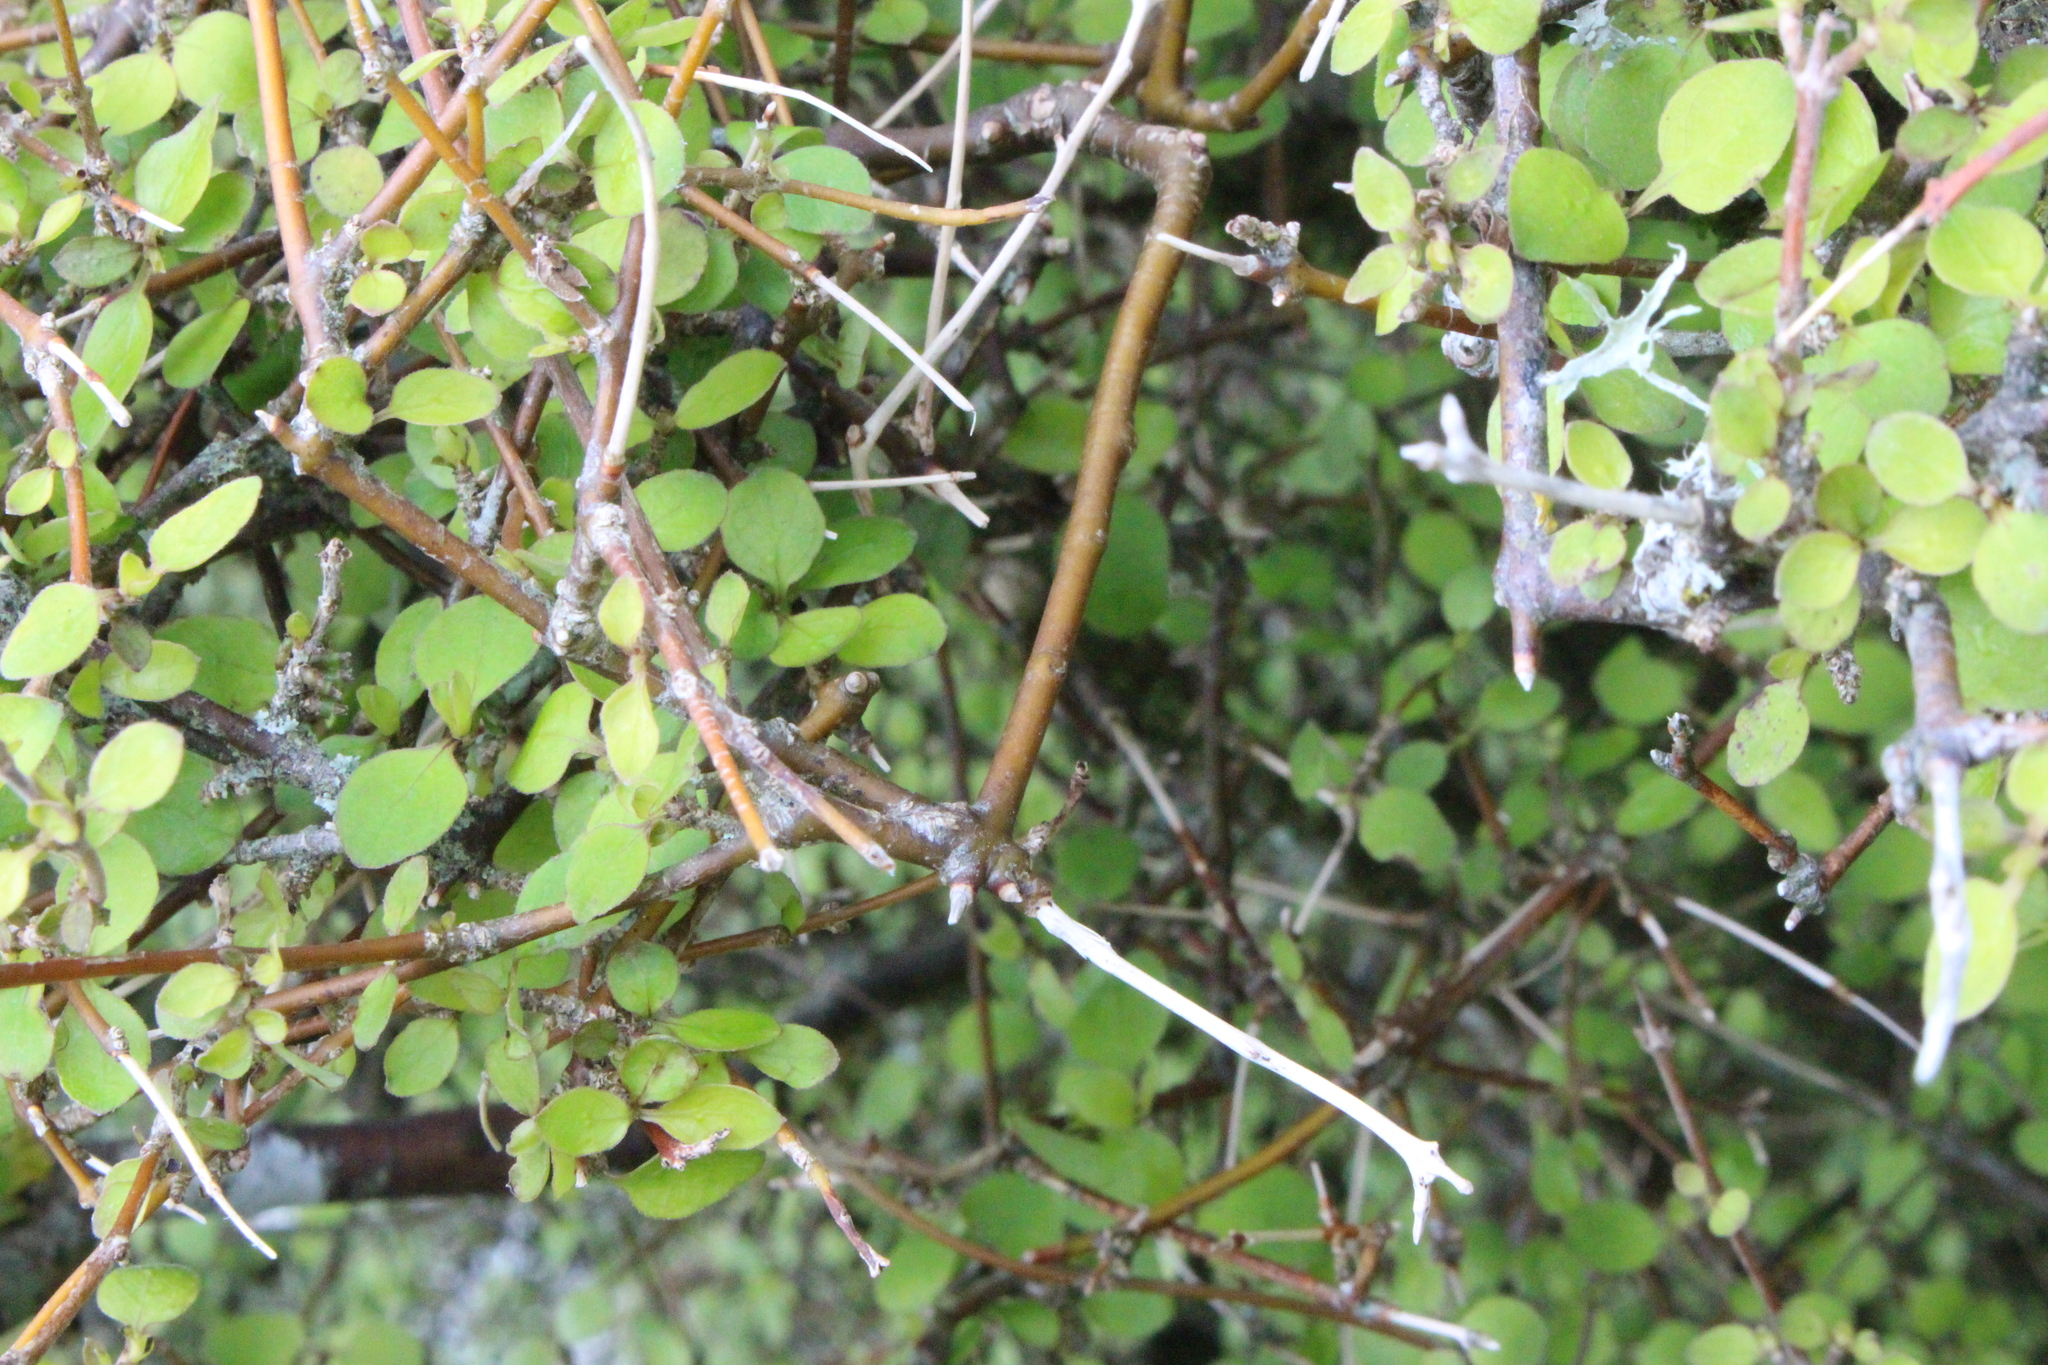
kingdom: Plantae
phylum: Tracheophyta
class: Magnoliopsida
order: Gentianales
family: Rubiaceae
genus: Coprosma
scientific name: Coprosma rubra
